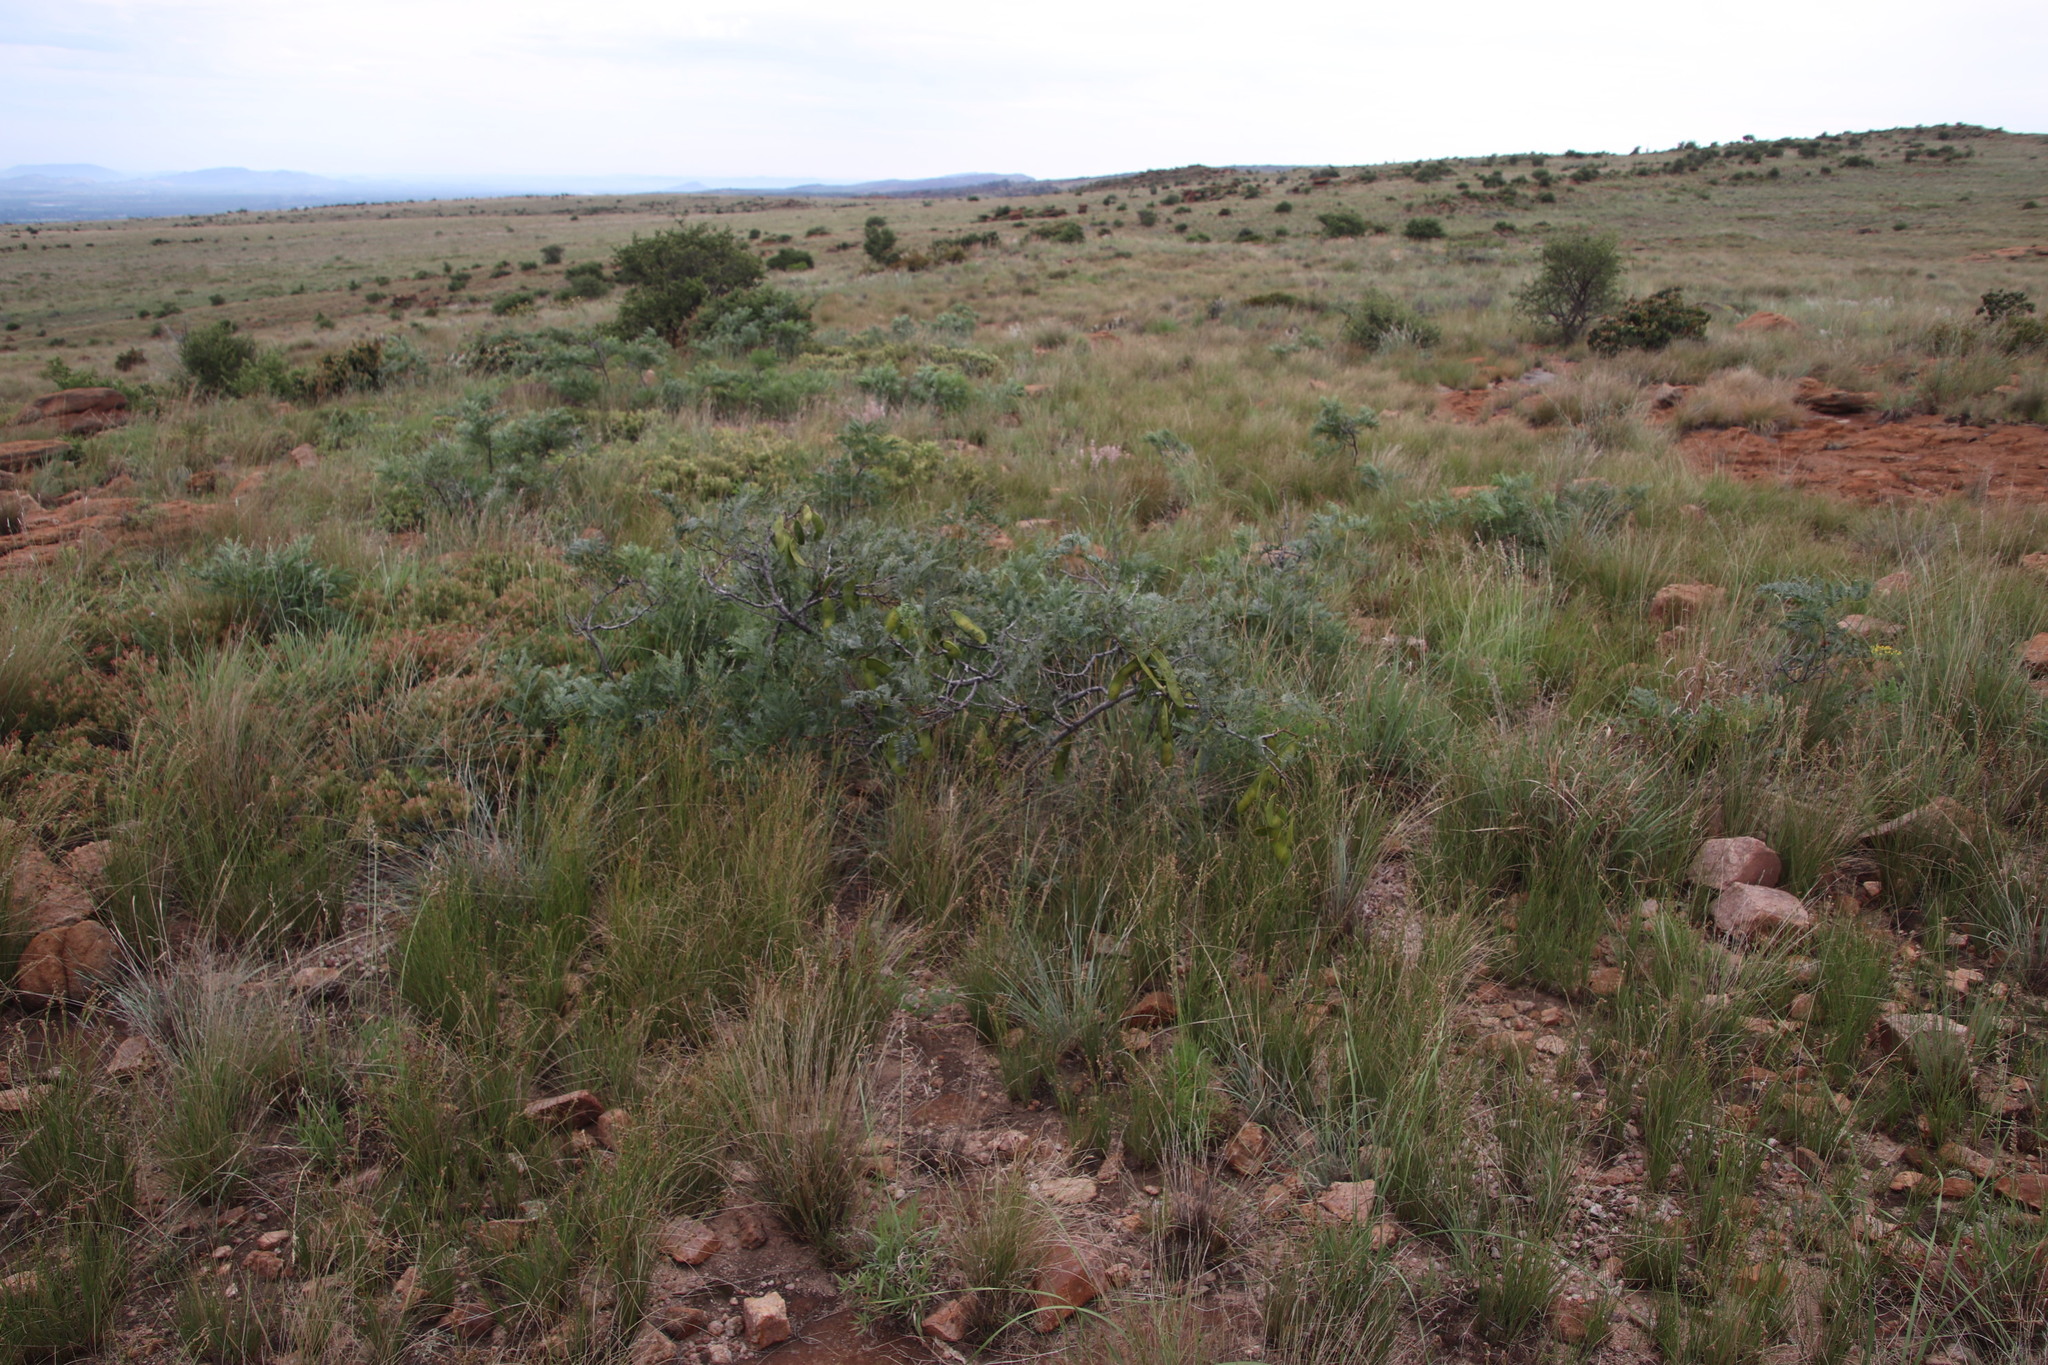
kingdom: Plantae
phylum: Tracheophyta
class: Magnoliopsida
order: Fabales
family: Fabaceae
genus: Elephantorrhiza
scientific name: Elephantorrhiza burkei
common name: Broad-pod elephant-root
